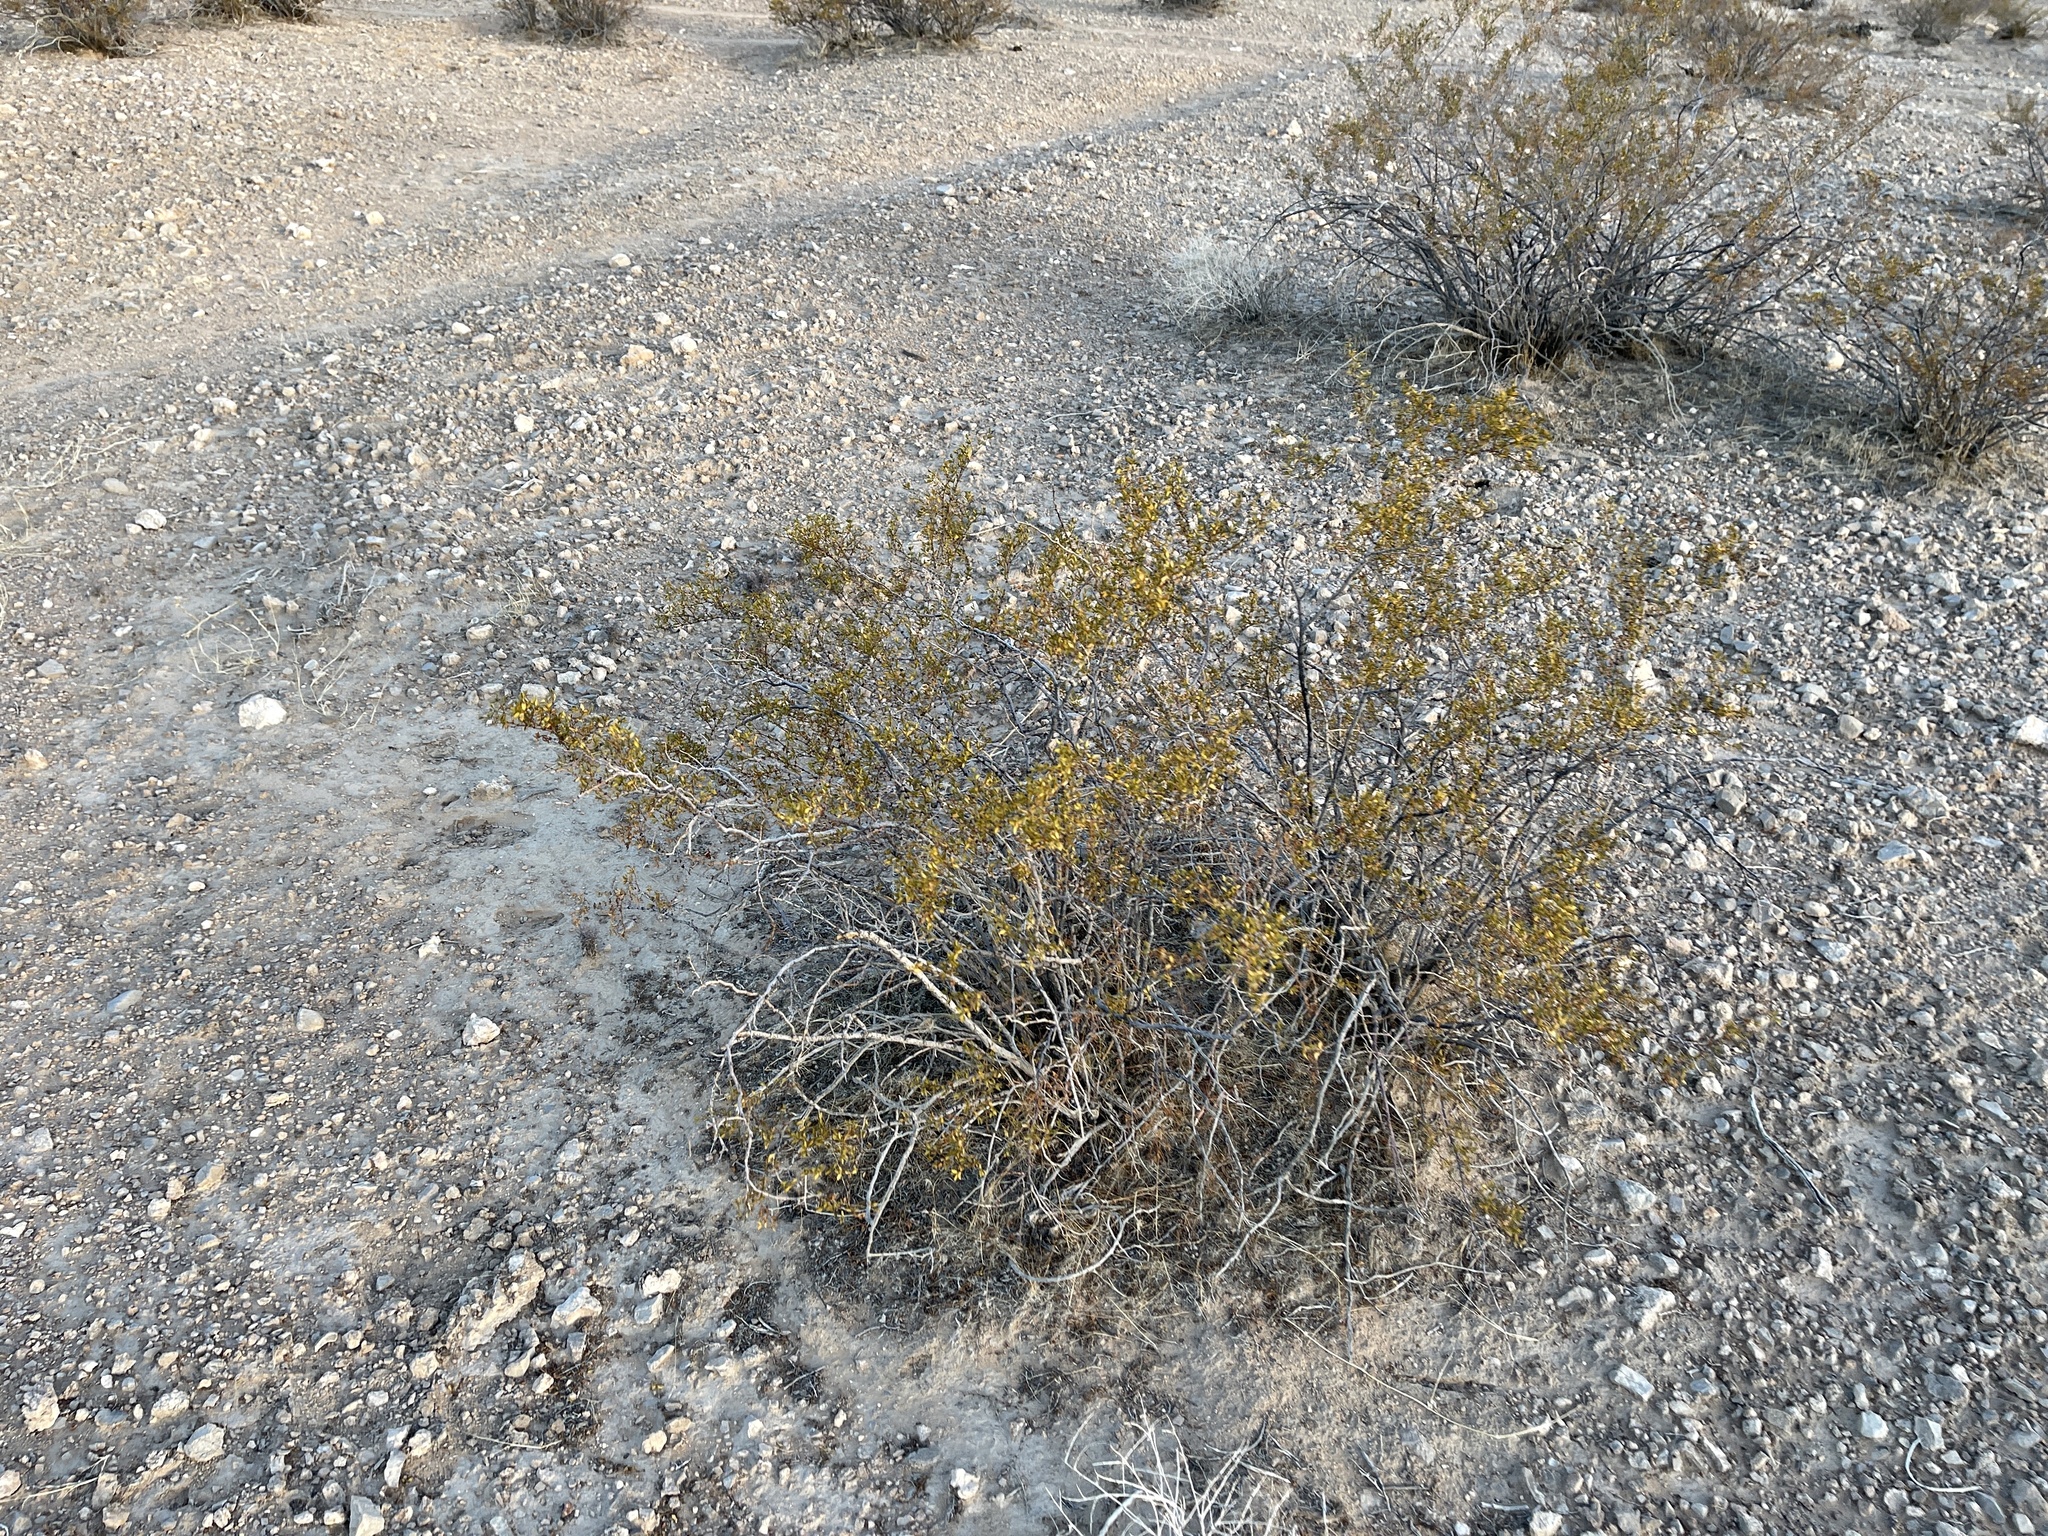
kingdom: Plantae
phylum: Tracheophyta
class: Magnoliopsida
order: Zygophyllales
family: Zygophyllaceae
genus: Larrea
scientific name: Larrea tridentata
